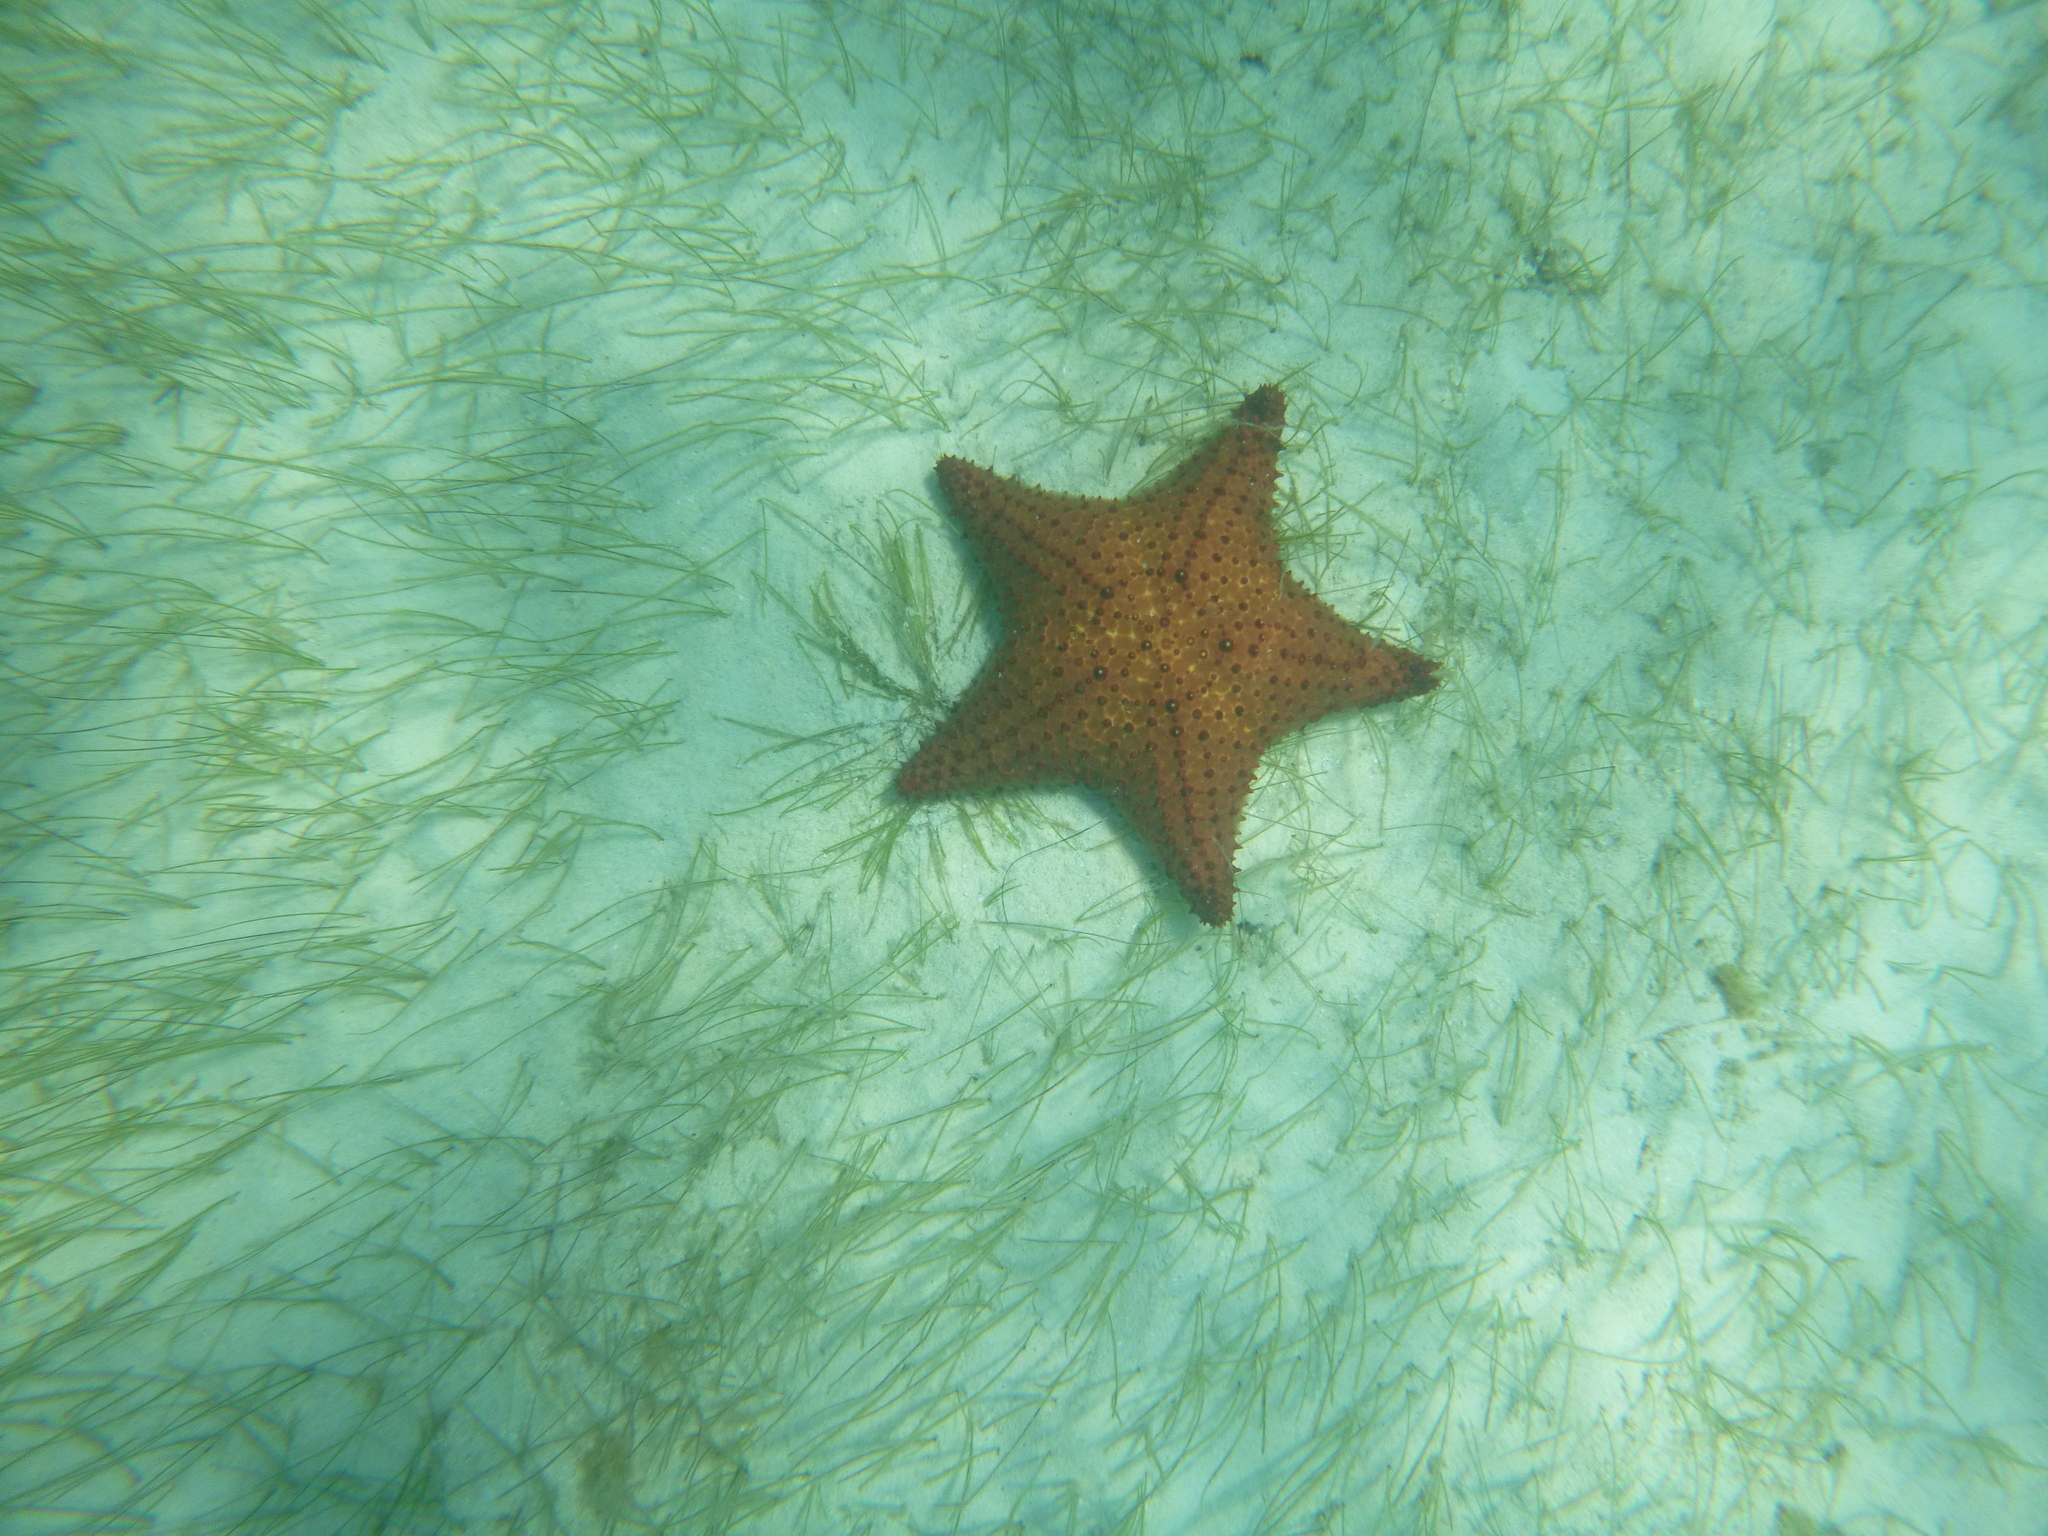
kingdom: Animalia
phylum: Echinodermata
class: Asteroidea
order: Valvatida
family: Oreasteridae
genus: Oreaster
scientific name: Oreaster reticulatus
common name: Cushion sea star
